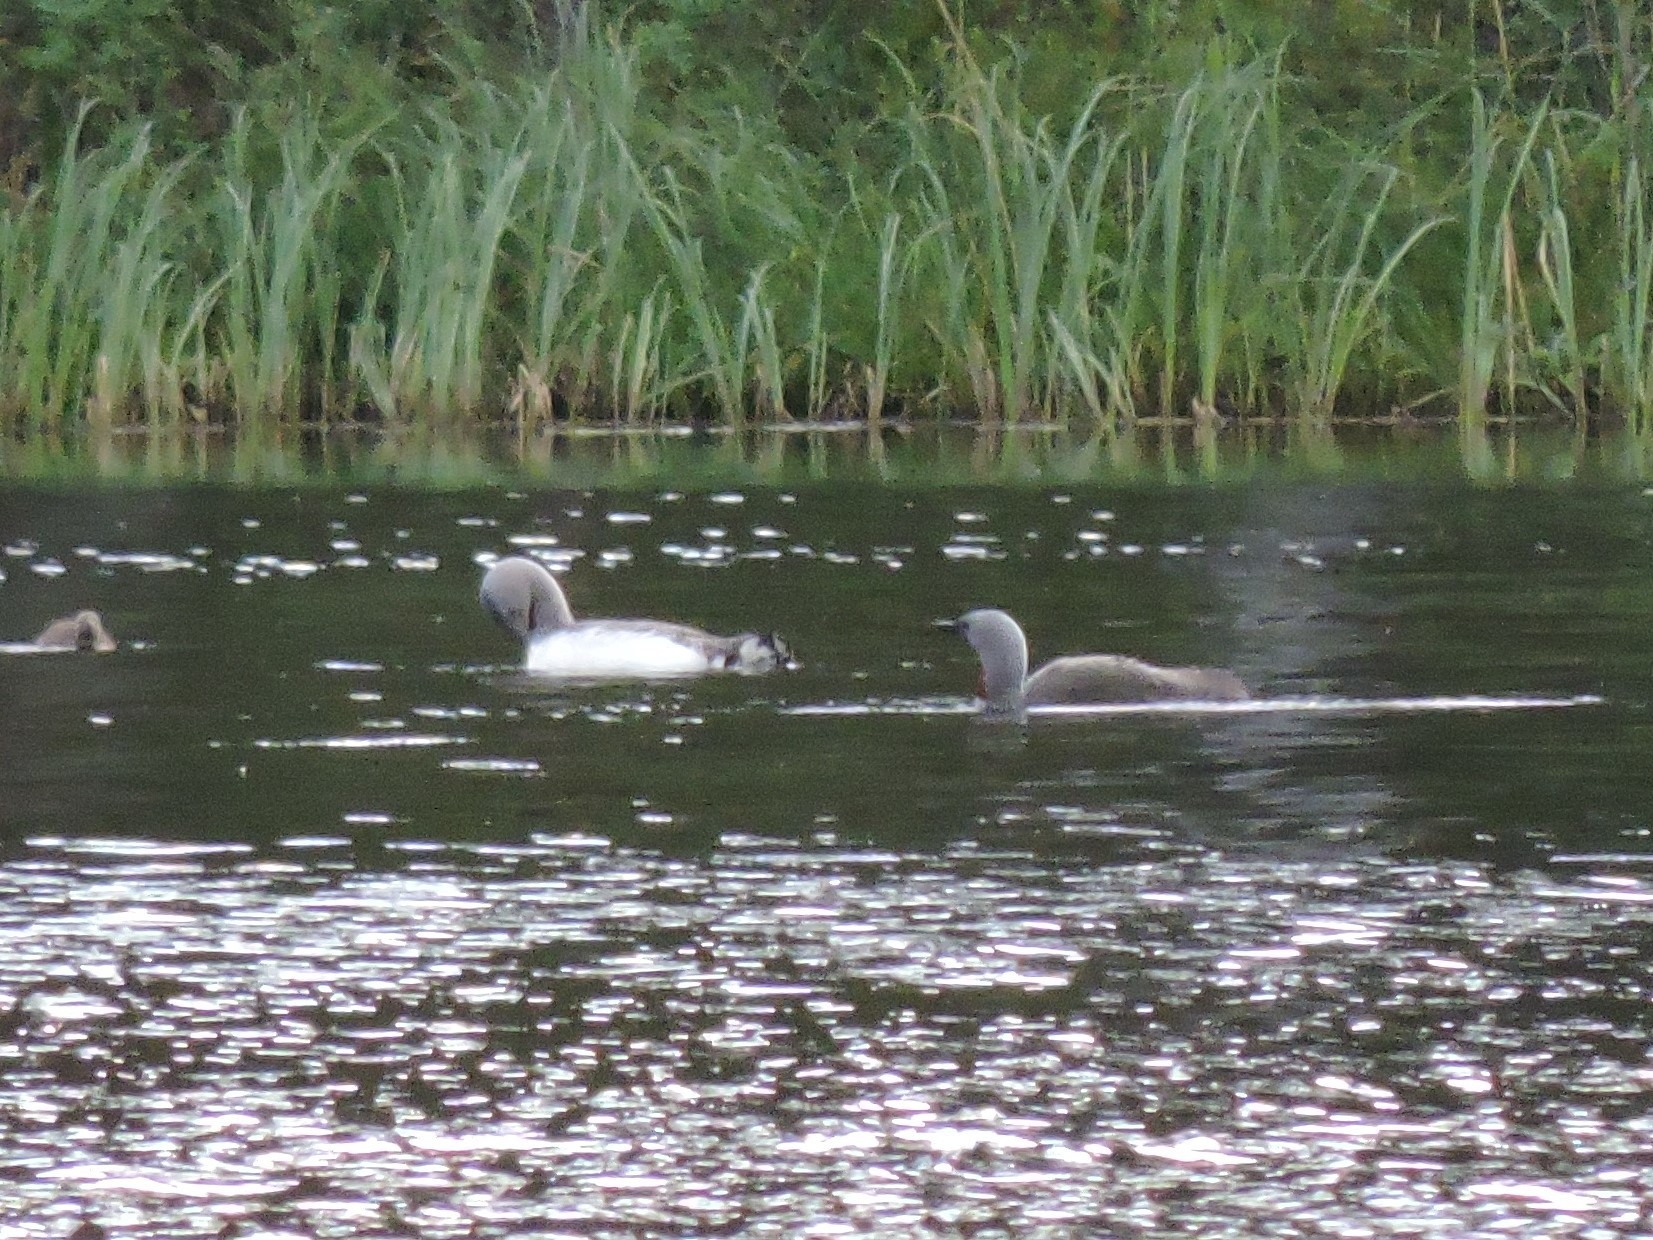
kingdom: Animalia
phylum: Chordata
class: Aves
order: Gaviiformes
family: Gaviidae
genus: Gavia
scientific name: Gavia stellata
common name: Red-throated loon
